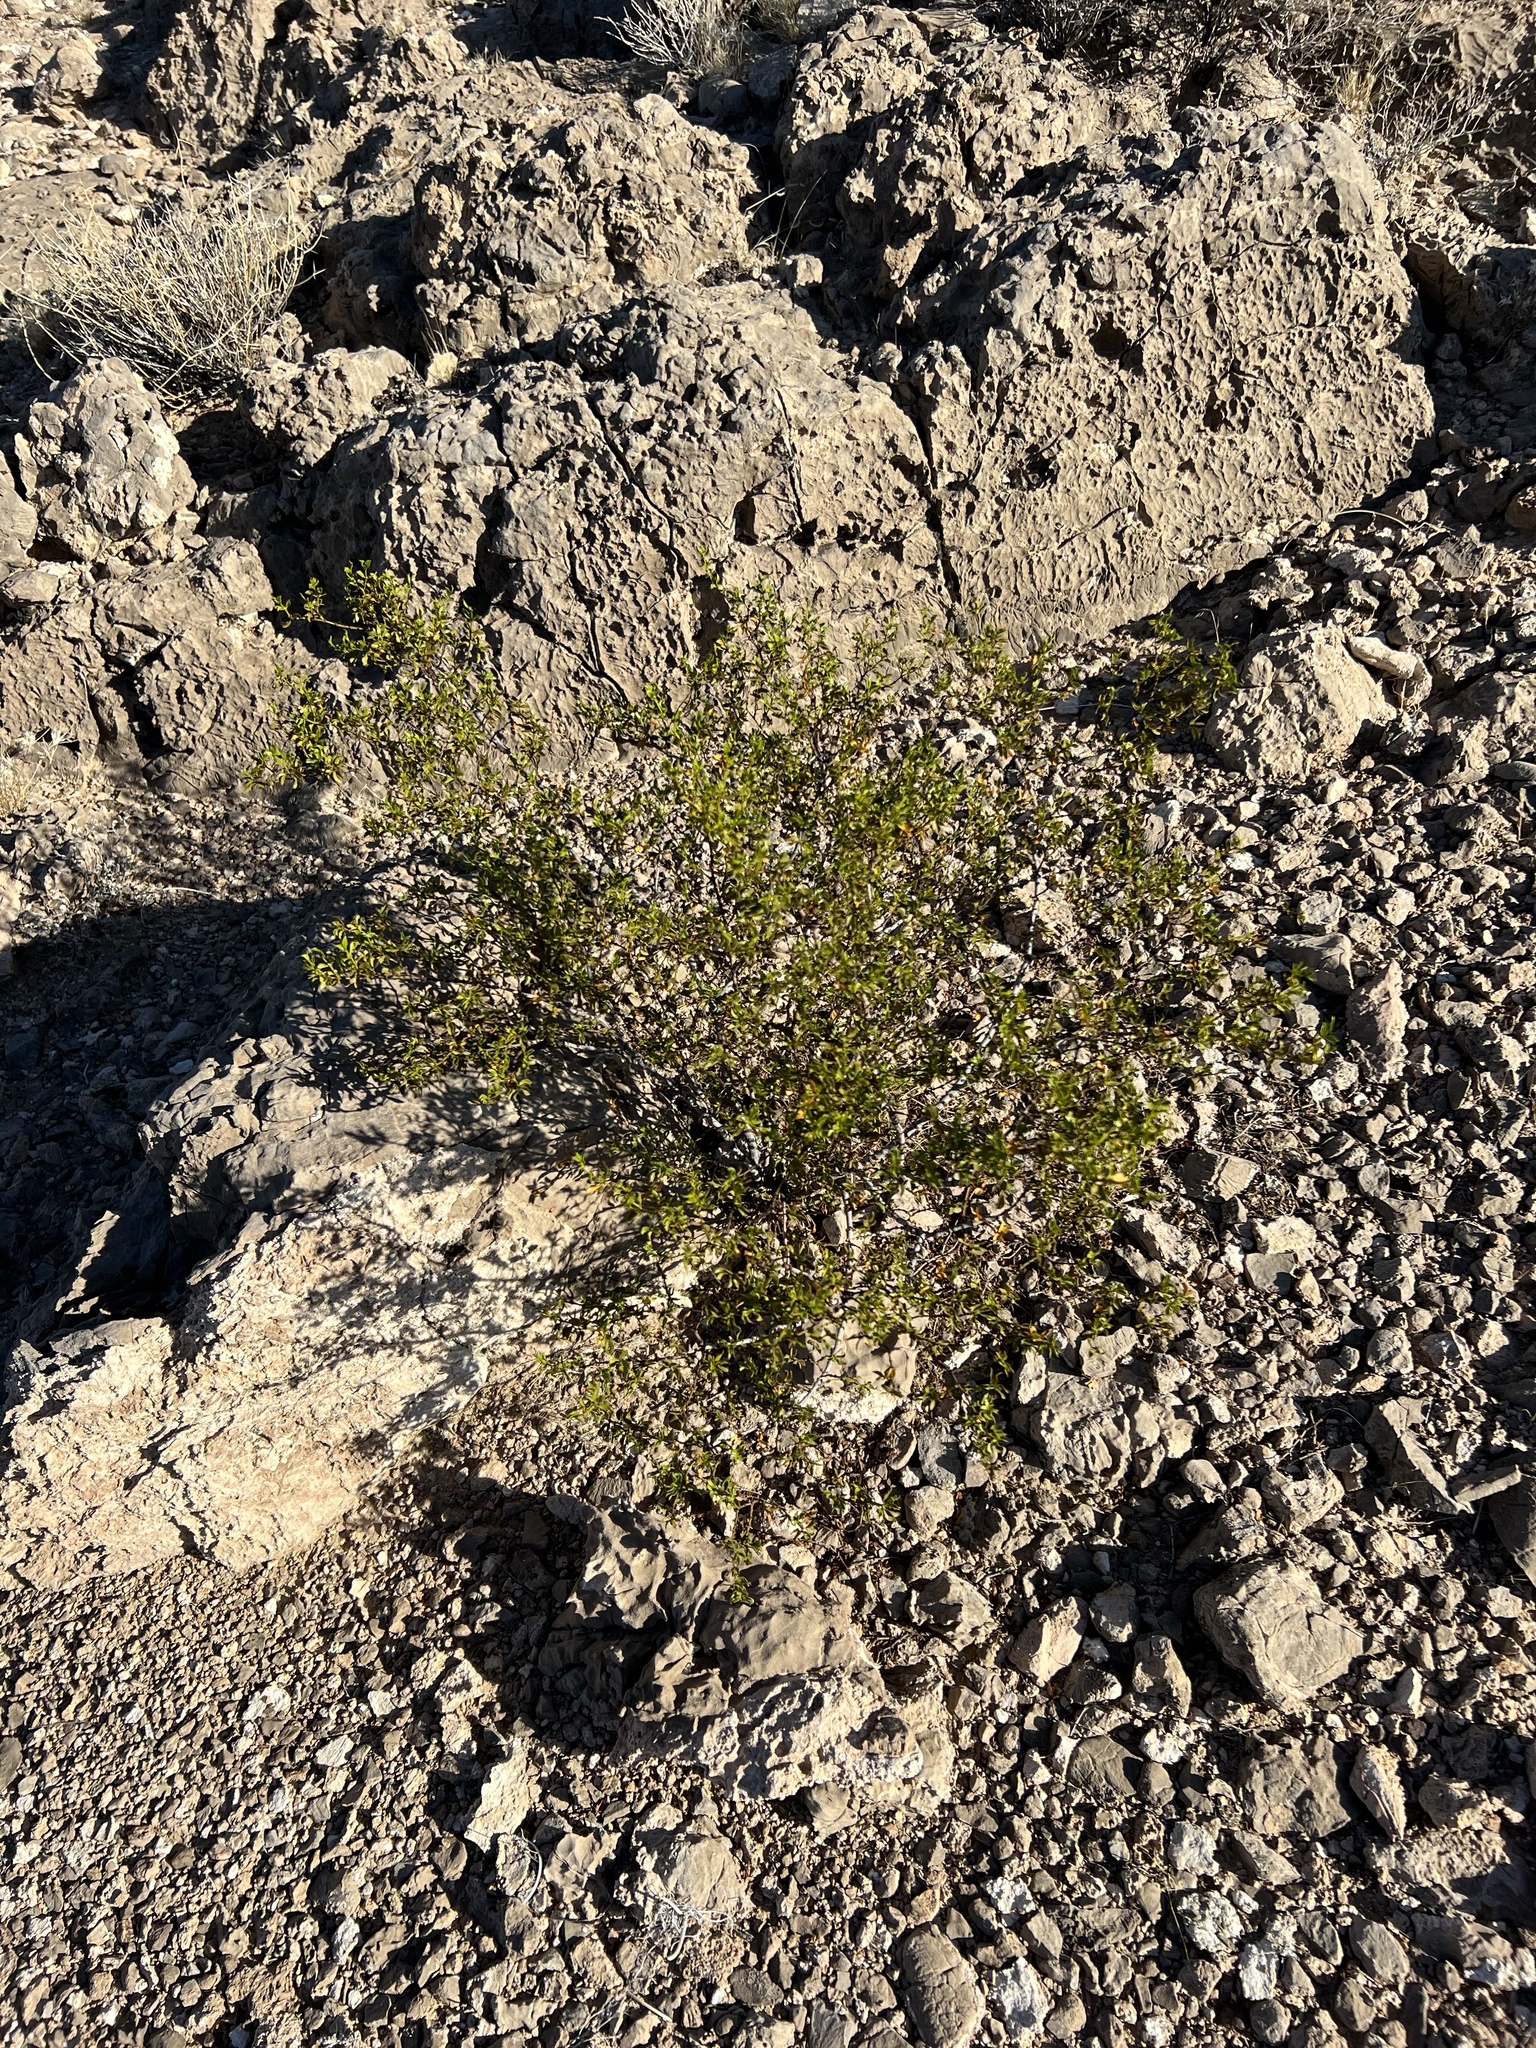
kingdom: Plantae
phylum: Tracheophyta
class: Magnoliopsida
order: Zygophyllales
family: Zygophyllaceae
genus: Larrea
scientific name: Larrea tridentata
